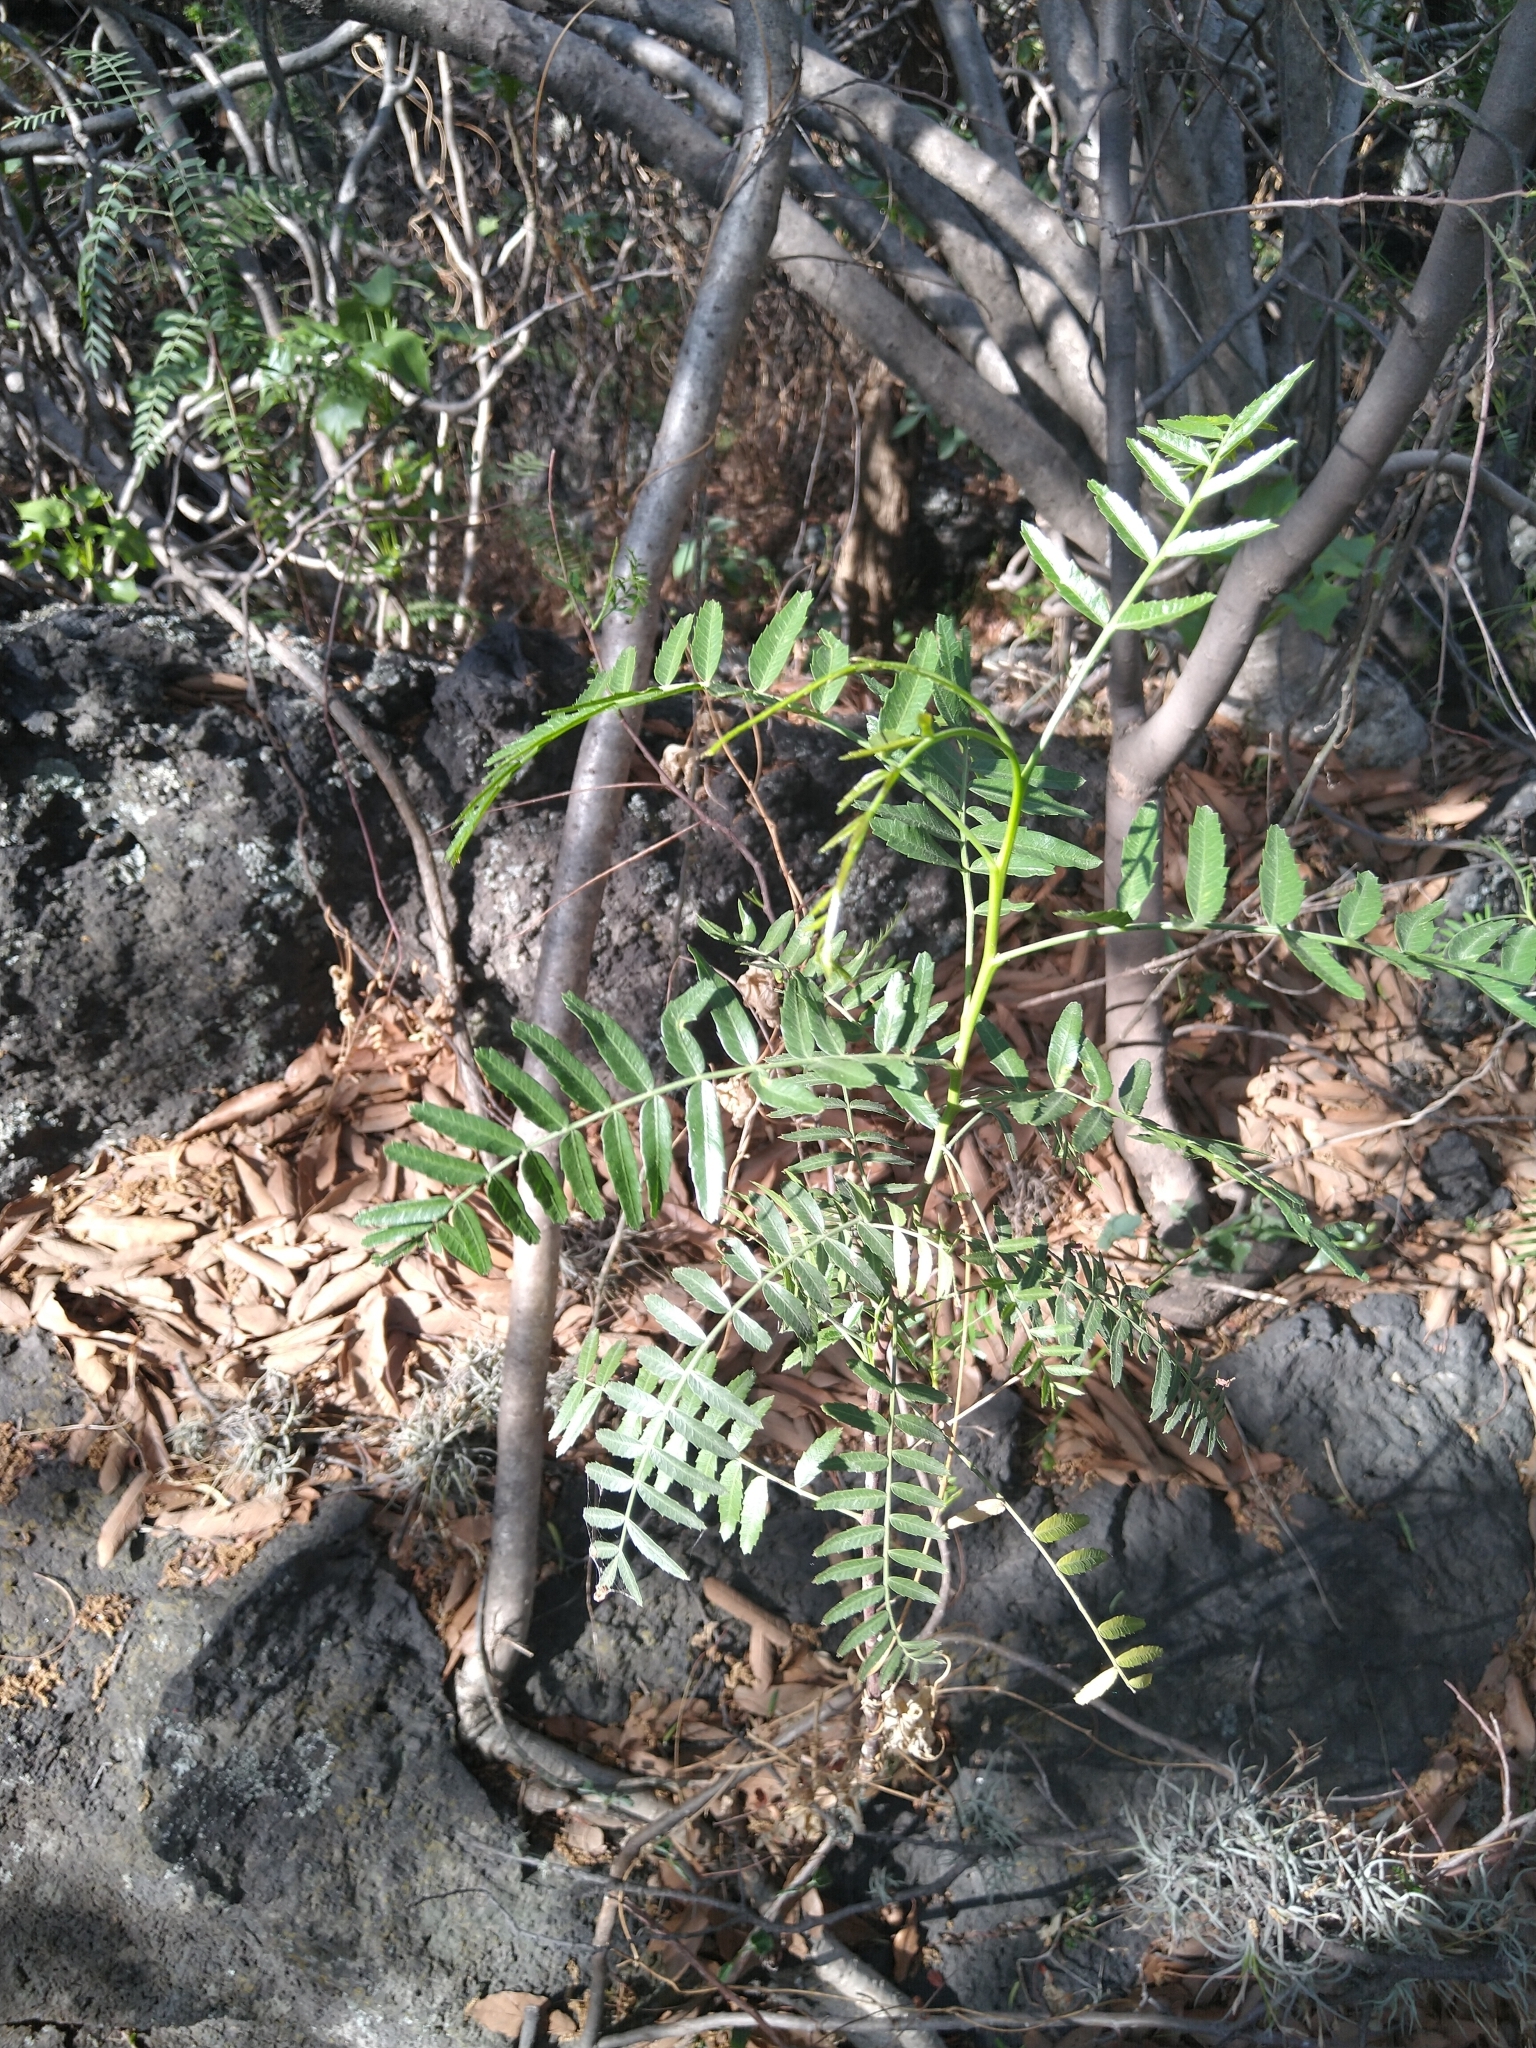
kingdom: Plantae
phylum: Tracheophyta
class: Magnoliopsida
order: Sapindales
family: Anacardiaceae
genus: Schinus
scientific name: Schinus molle
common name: Peruvian peppertree
